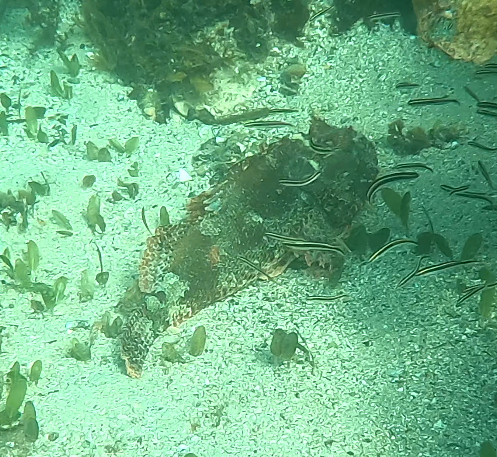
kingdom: Animalia
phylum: Chordata
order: Scorpaeniformes
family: Scorpaenidae
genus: Scorpaena
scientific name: Scorpaena jacksoniensis
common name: Eastern red scorpionfish
